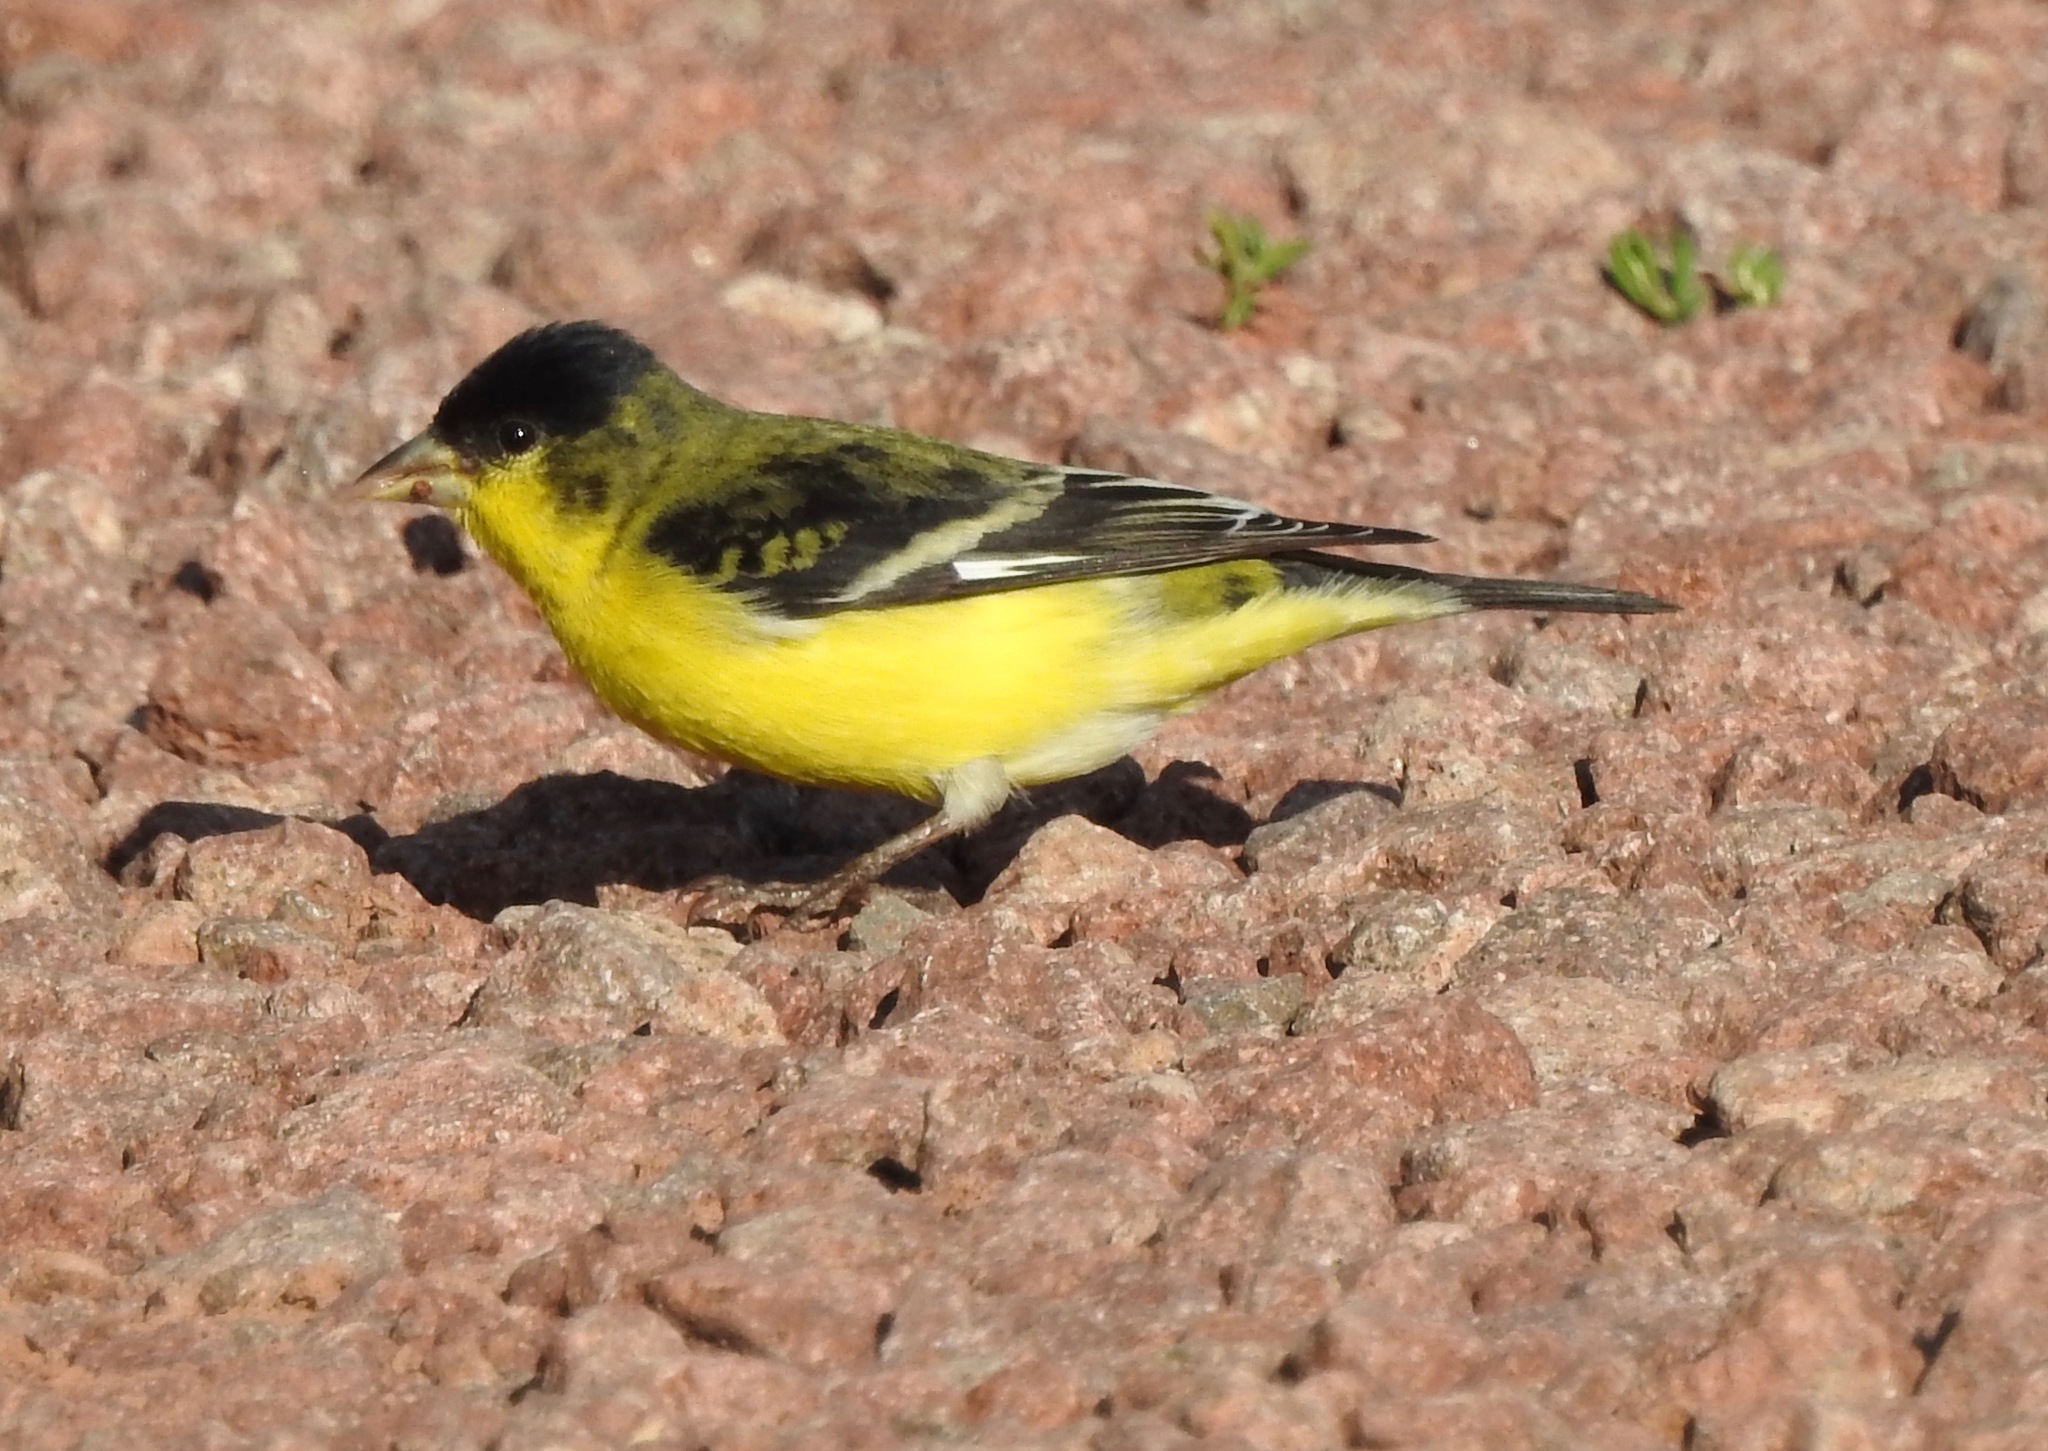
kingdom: Animalia
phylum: Chordata
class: Aves
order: Passeriformes
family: Fringillidae
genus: Spinus
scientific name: Spinus psaltria
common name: Lesser goldfinch
